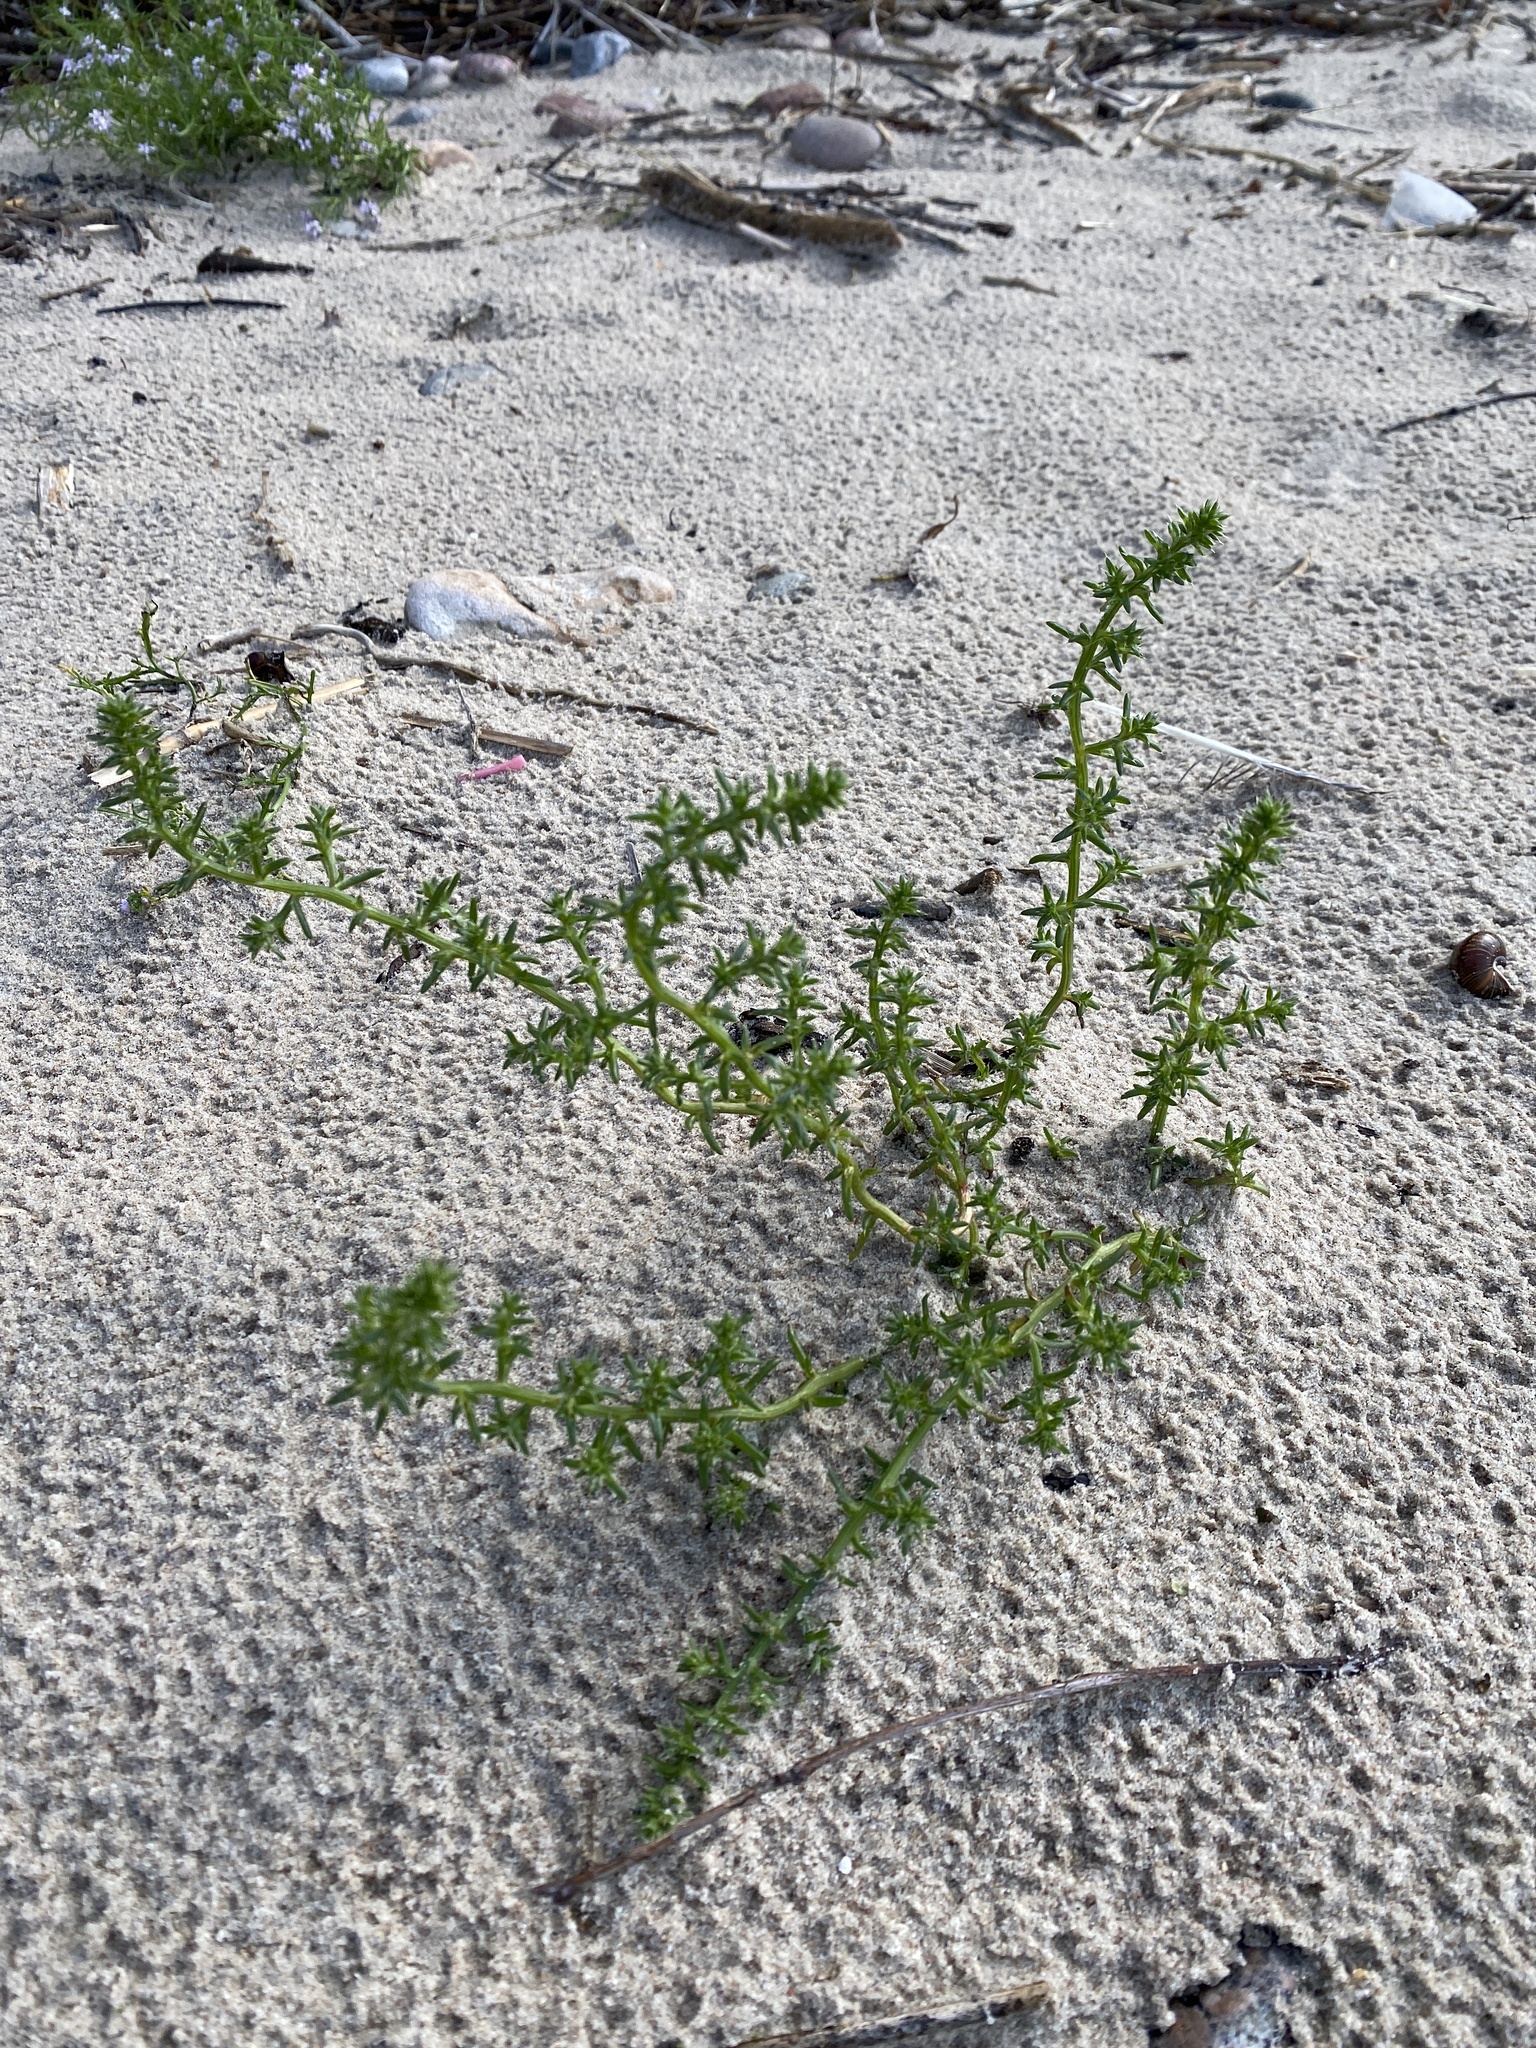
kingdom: Plantae
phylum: Tracheophyta
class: Magnoliopsida
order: Caryophyllales
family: Amaranthaceae
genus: Salsola
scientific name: Salsola kali
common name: Saltwort
